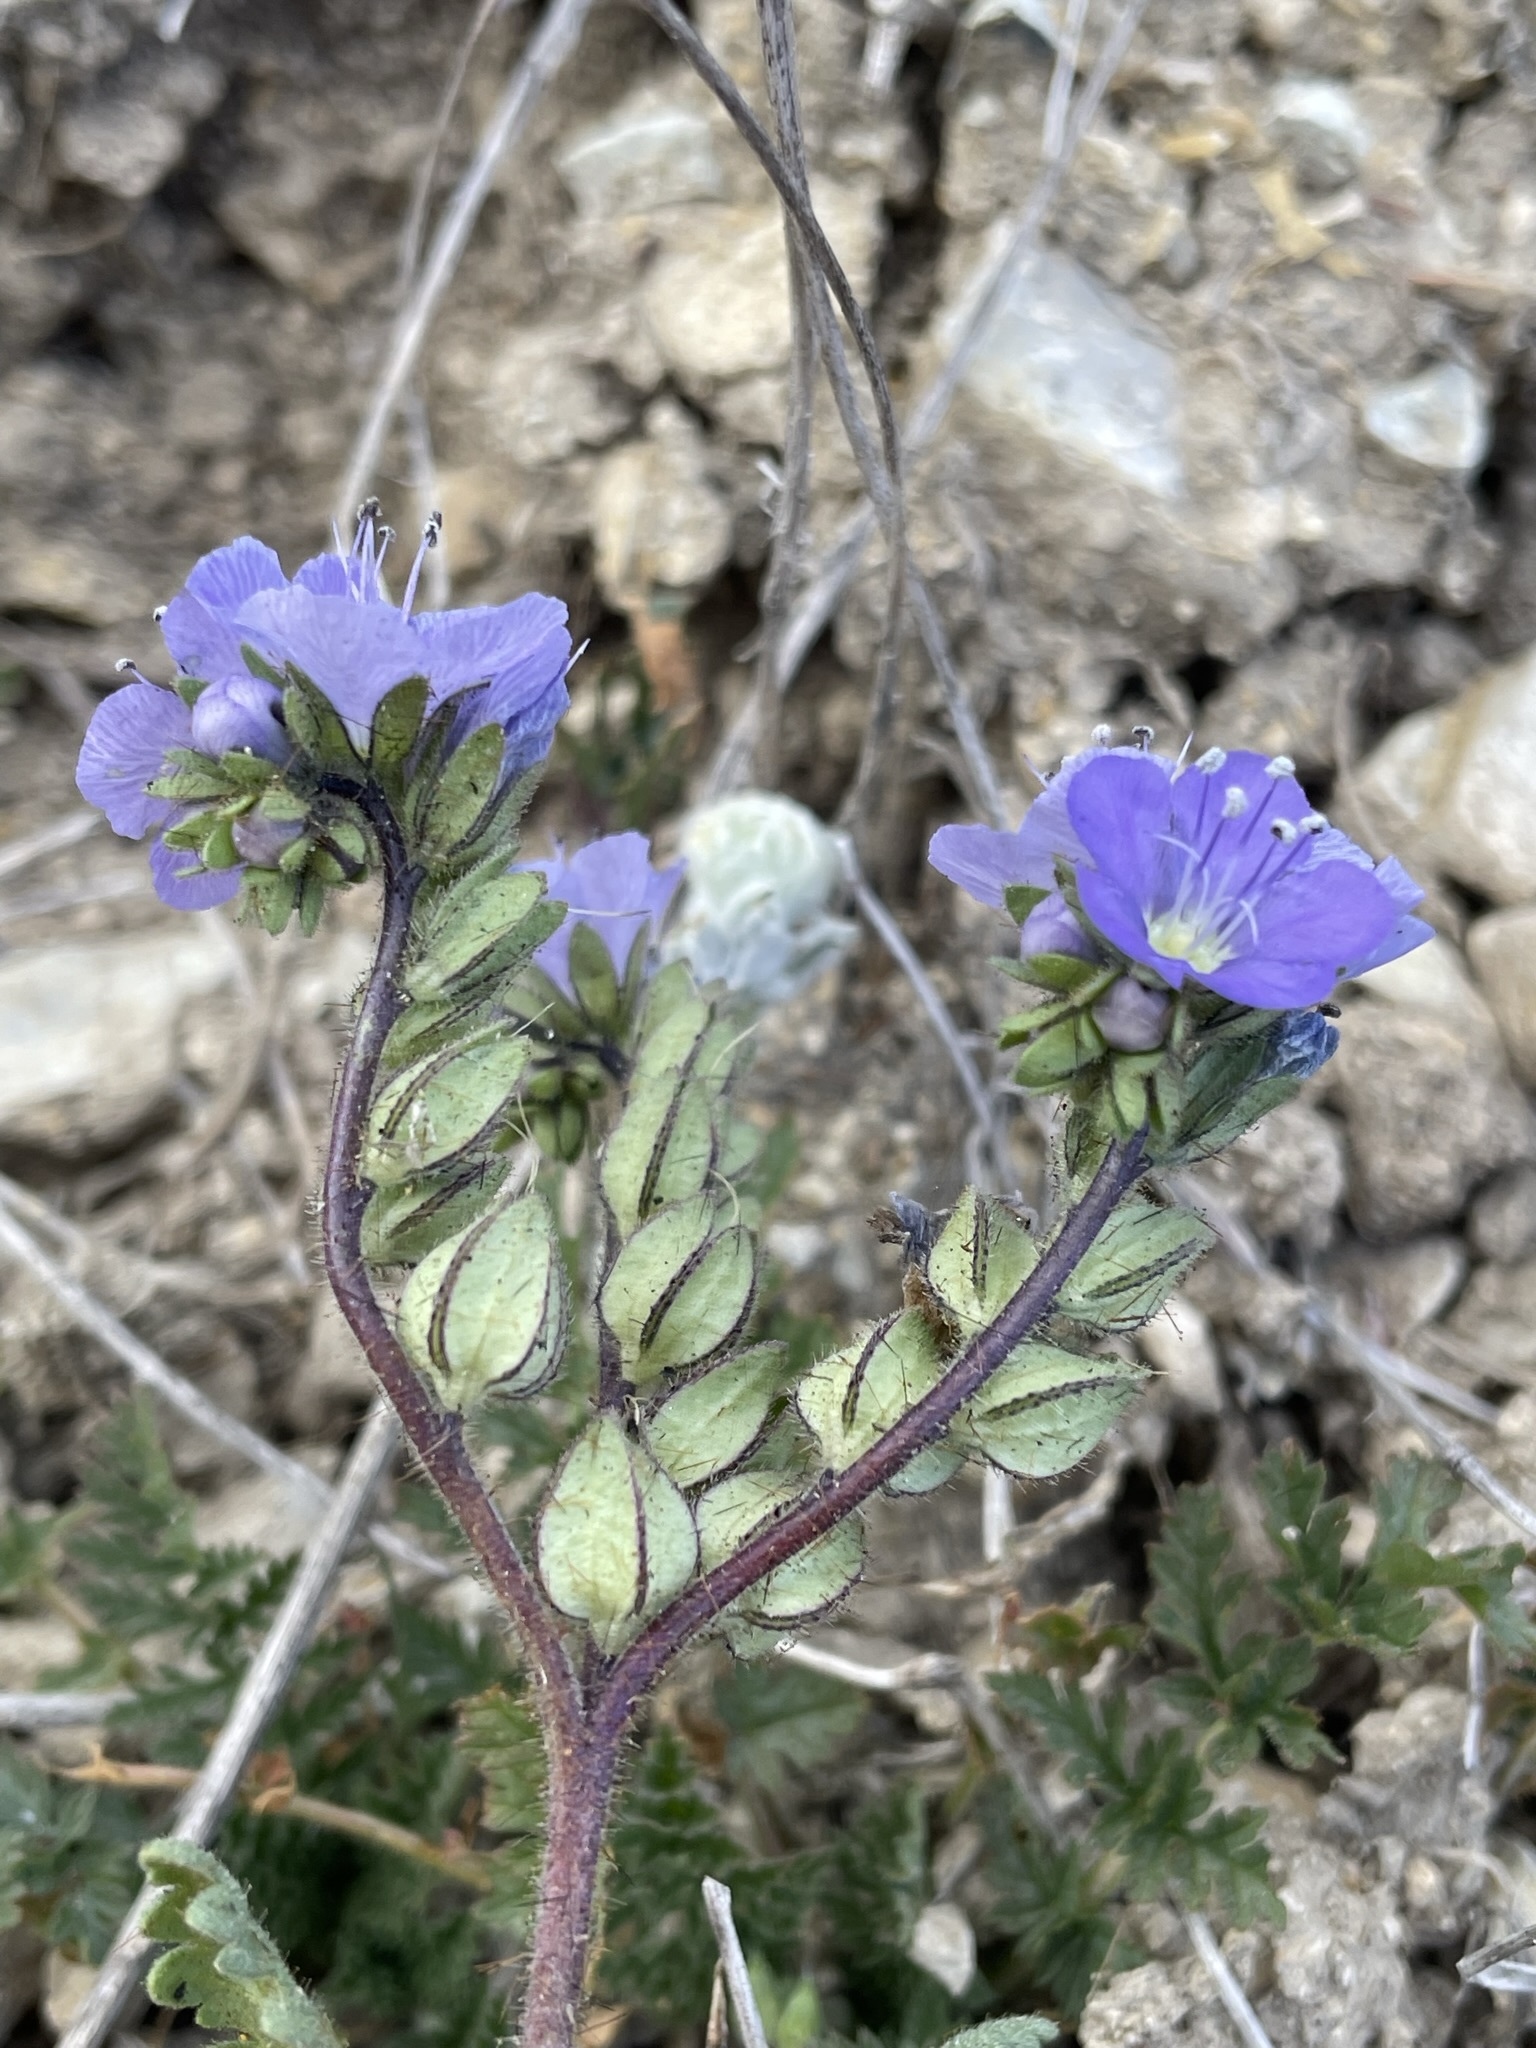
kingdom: Plantae
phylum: Tracheophyta
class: Magnoliopsida
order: Boraginales
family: Hydrophyllaceae
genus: Phacelia
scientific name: Phacelia ciliata
